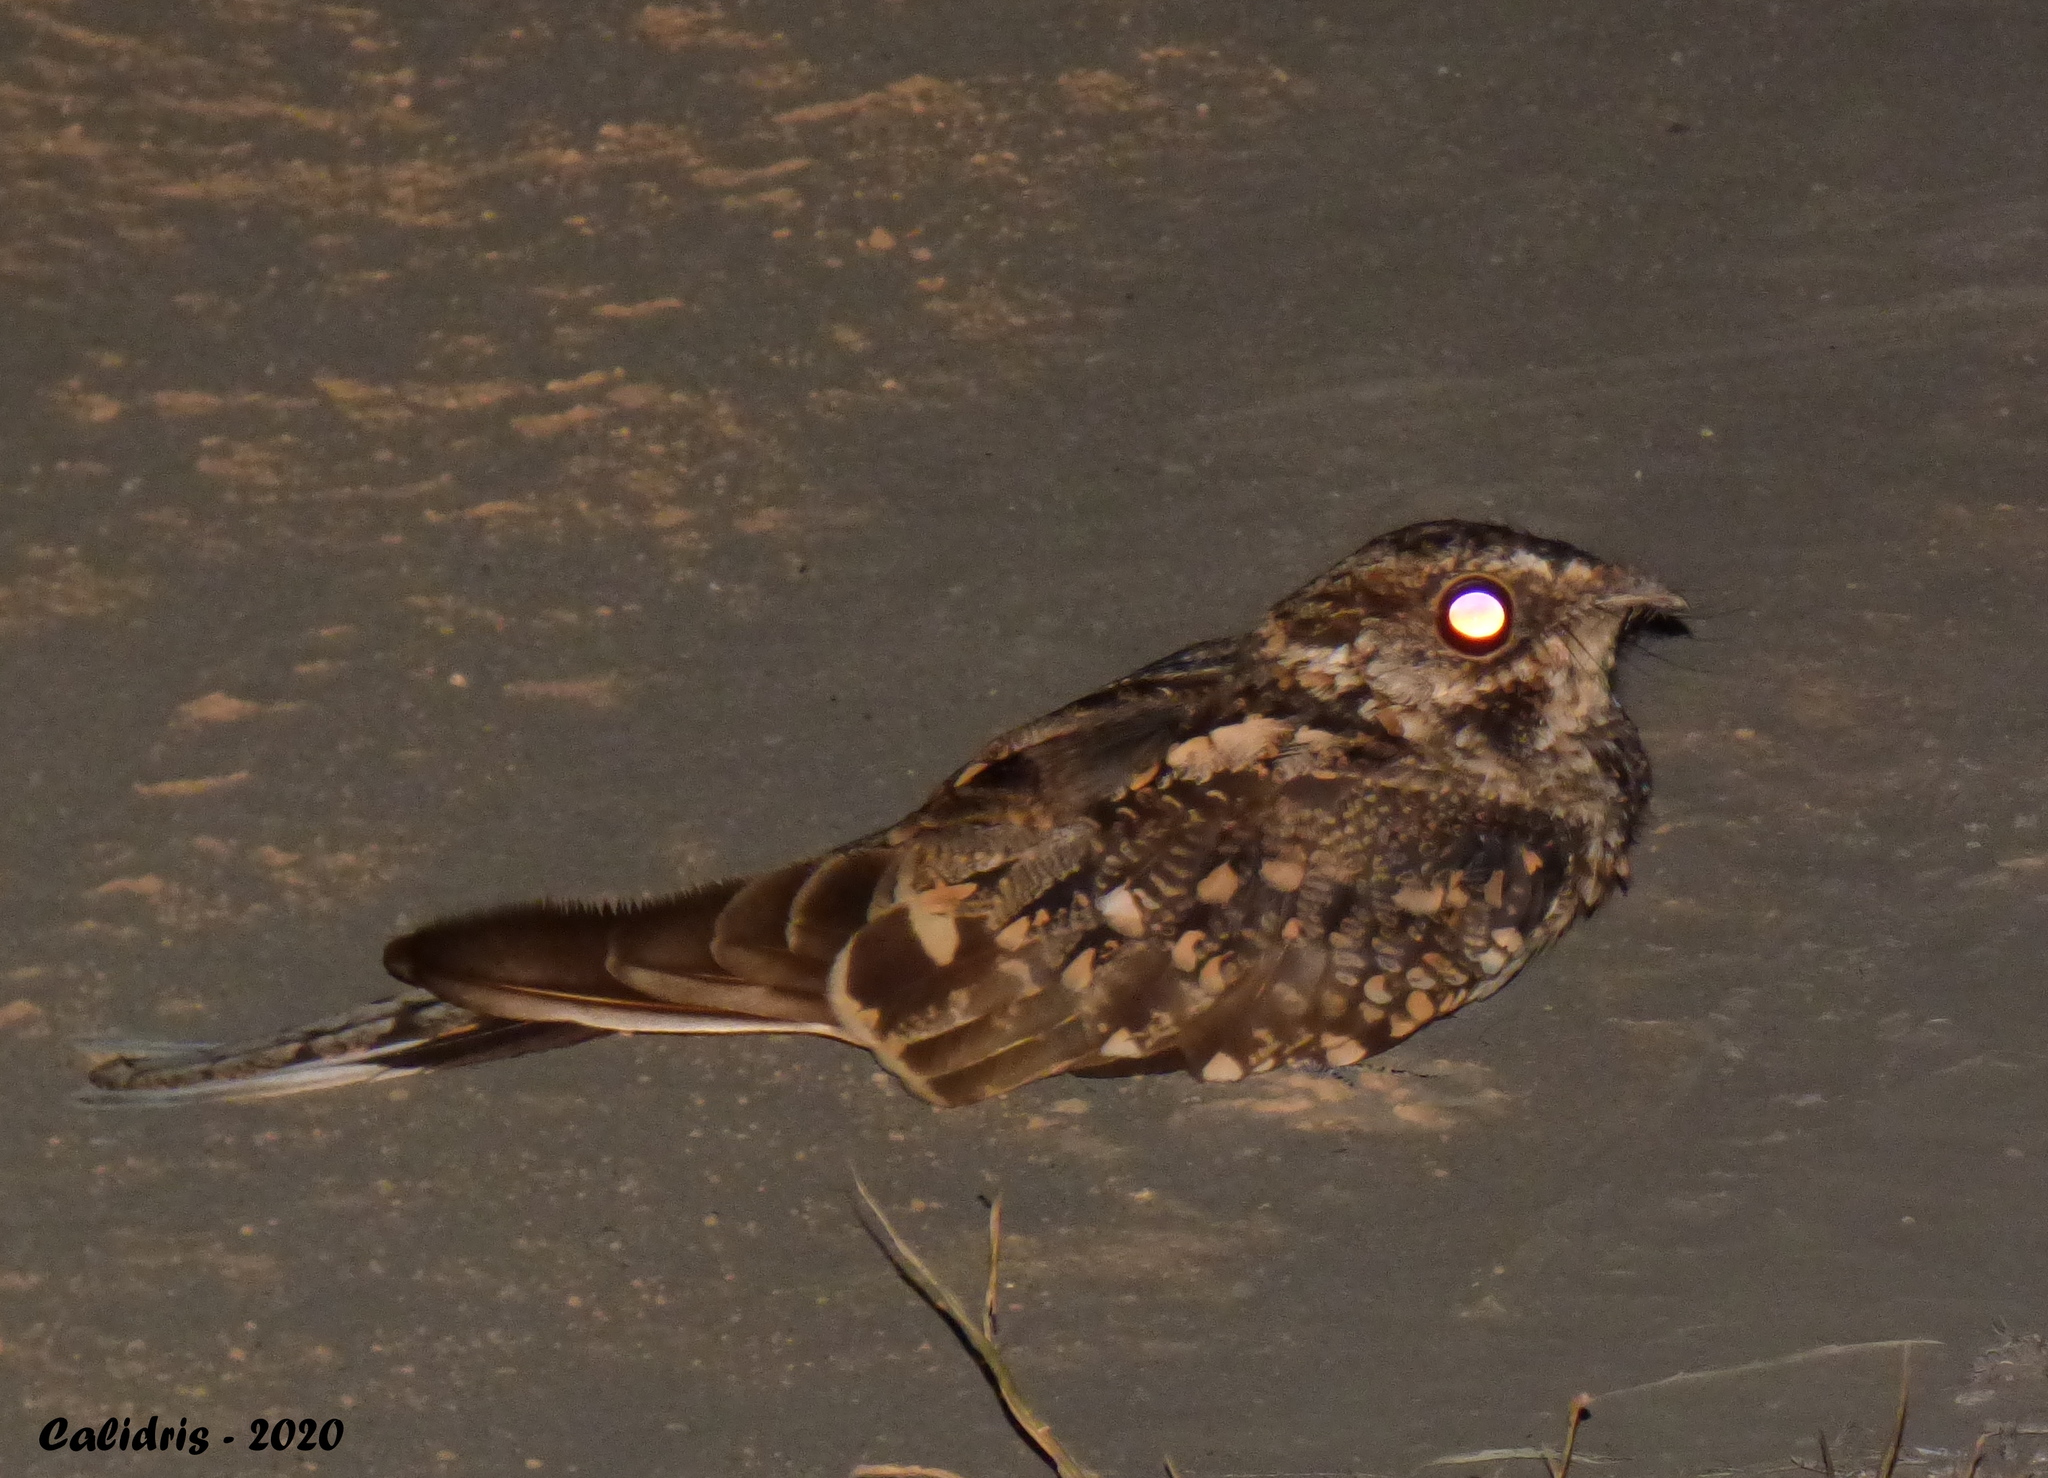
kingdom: Animalia
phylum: Chordata
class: Aves
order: Caprimulgiformes
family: Caprimulgidae
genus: Hydropsalis
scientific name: Hydropsalis torquata
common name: Scissor-tailed nightjar
